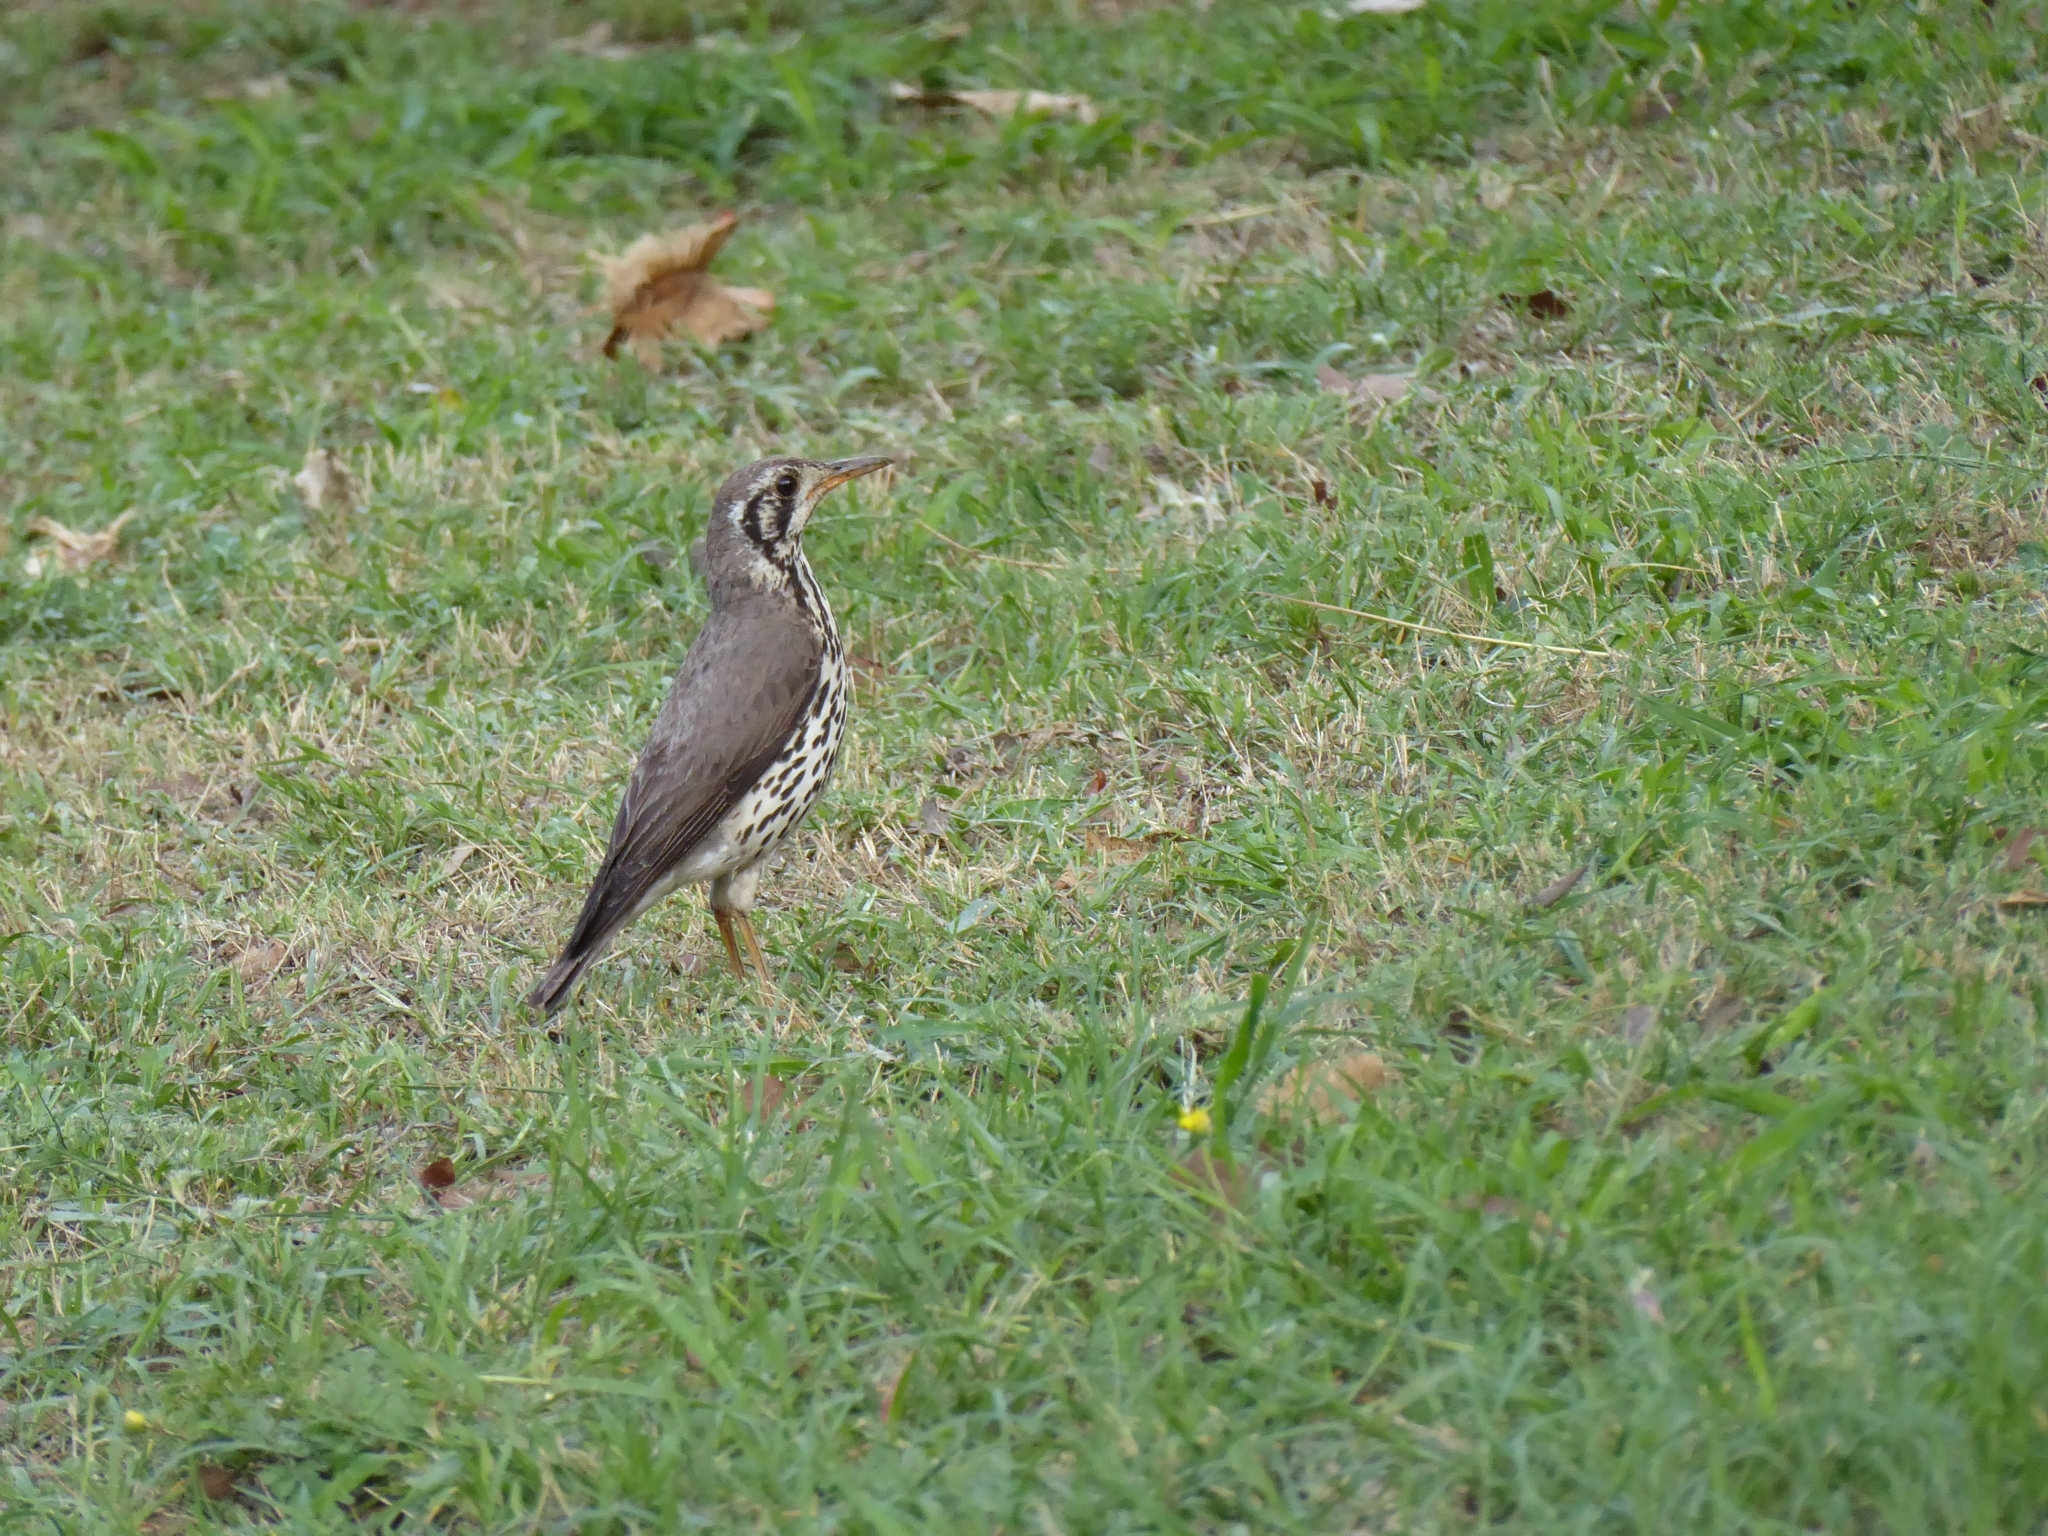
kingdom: Animalia
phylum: Chordata
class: Aves
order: Passeriformes
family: Turdidae
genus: Psophocichla
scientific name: Psophocichla litsitsirupa
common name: Groundscraper thrush
